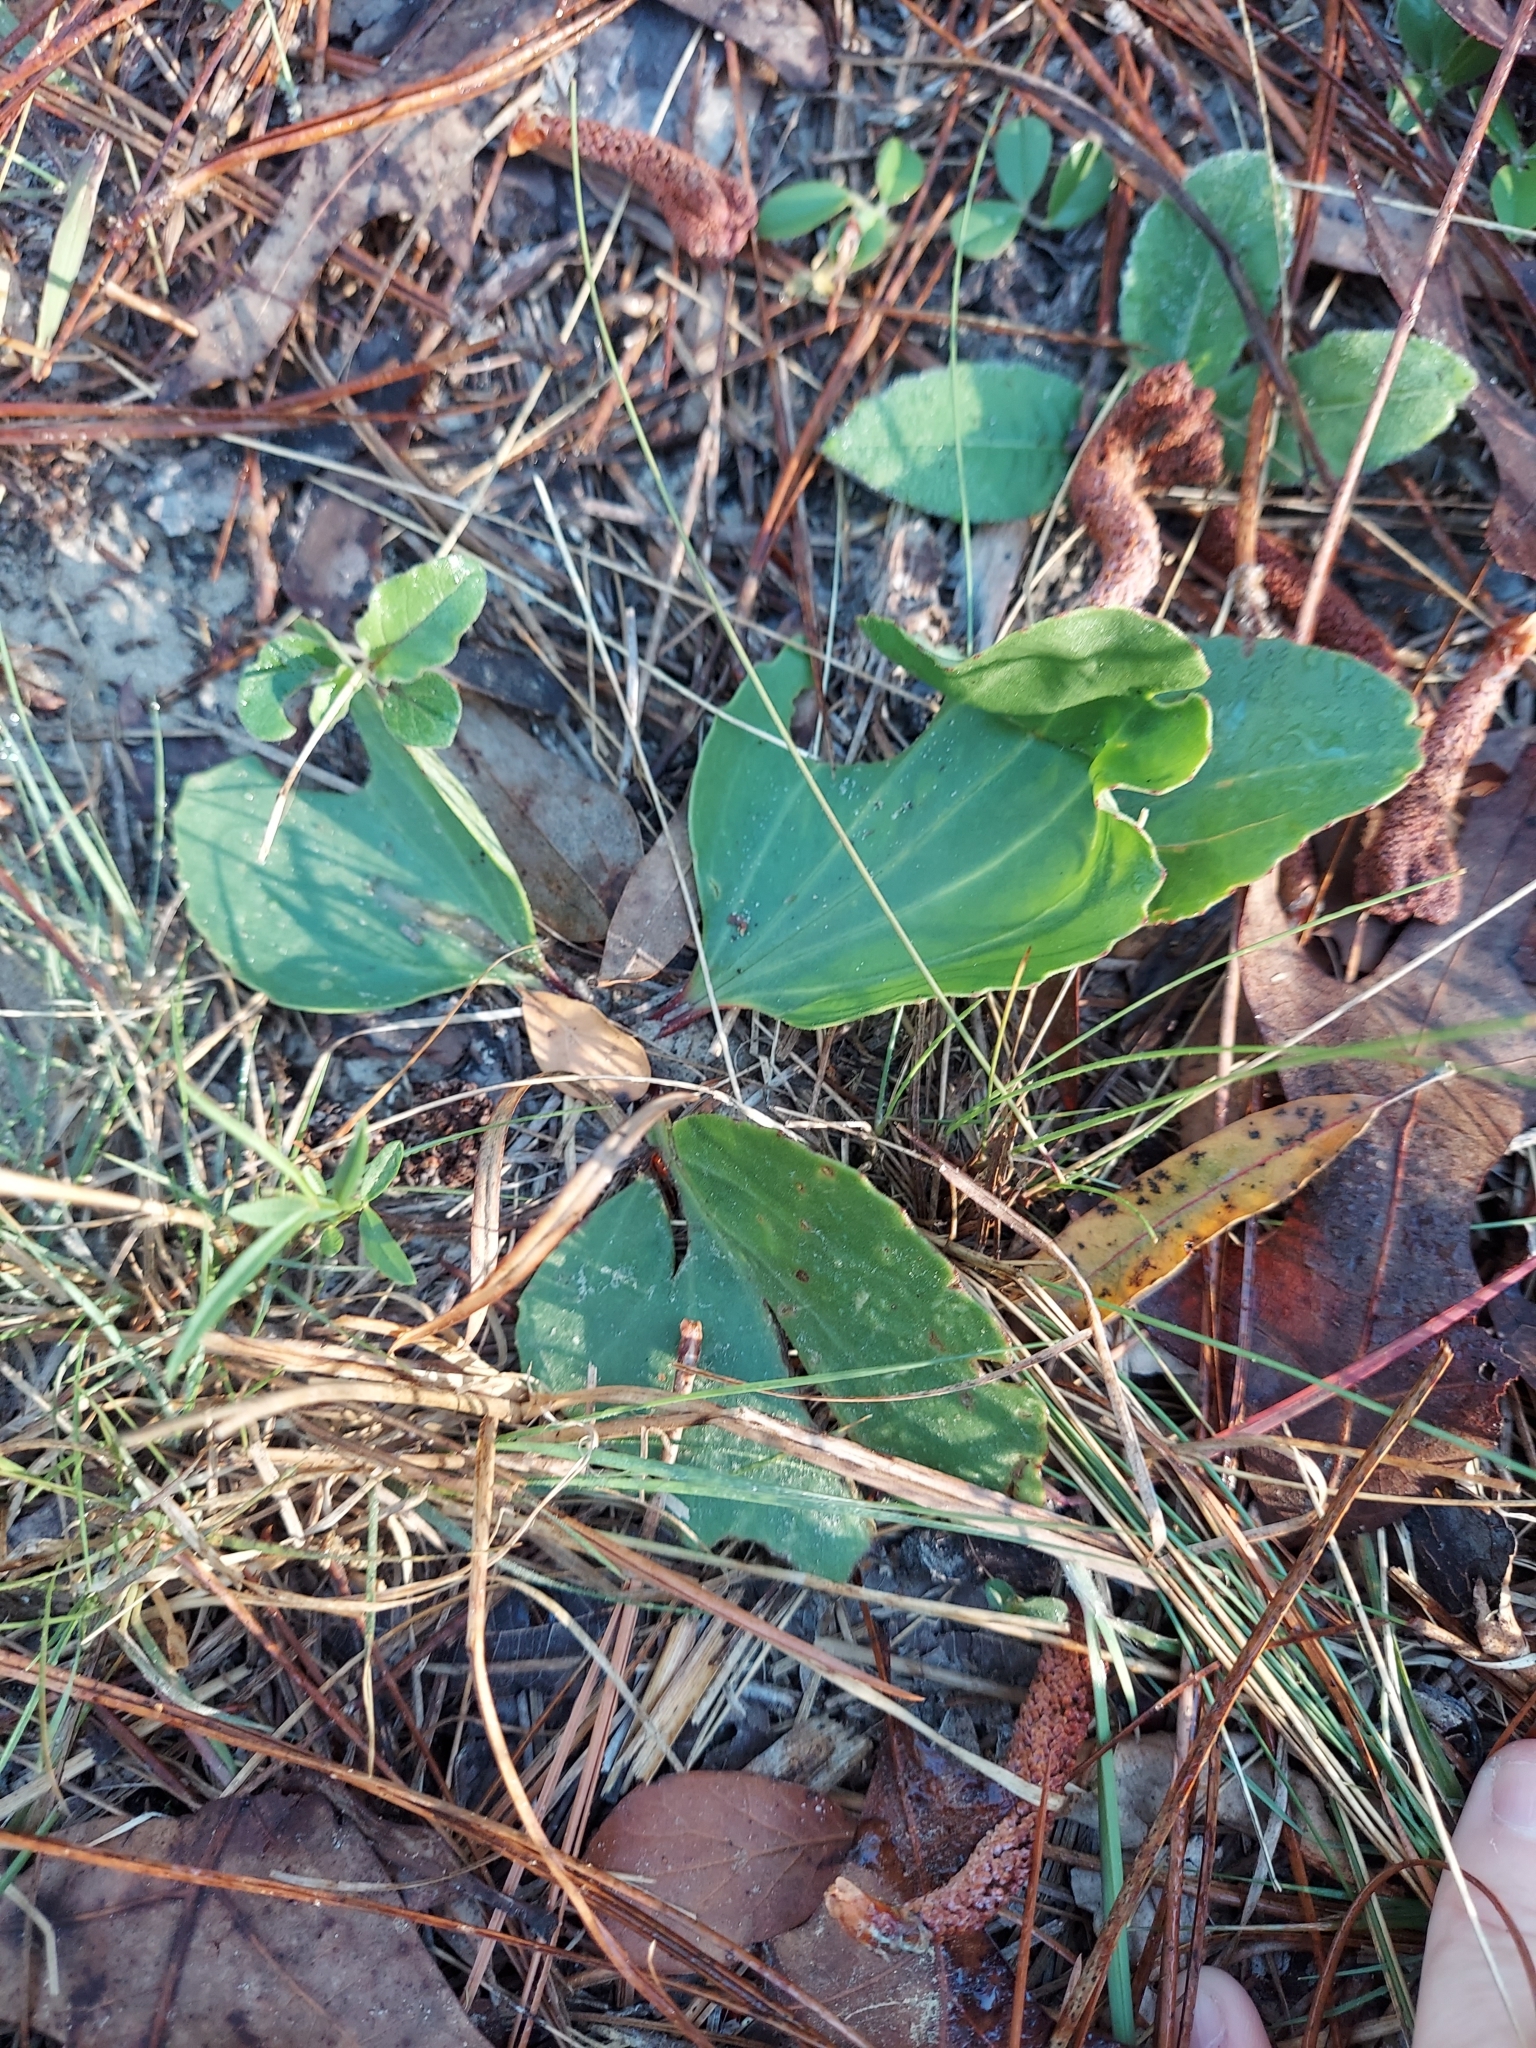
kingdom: Plantae
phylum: Tracheophyta
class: Magnoliopsida
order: Asterales
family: Asteraceae
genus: Arnoglossum
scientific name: Arnoglossum floridanum
